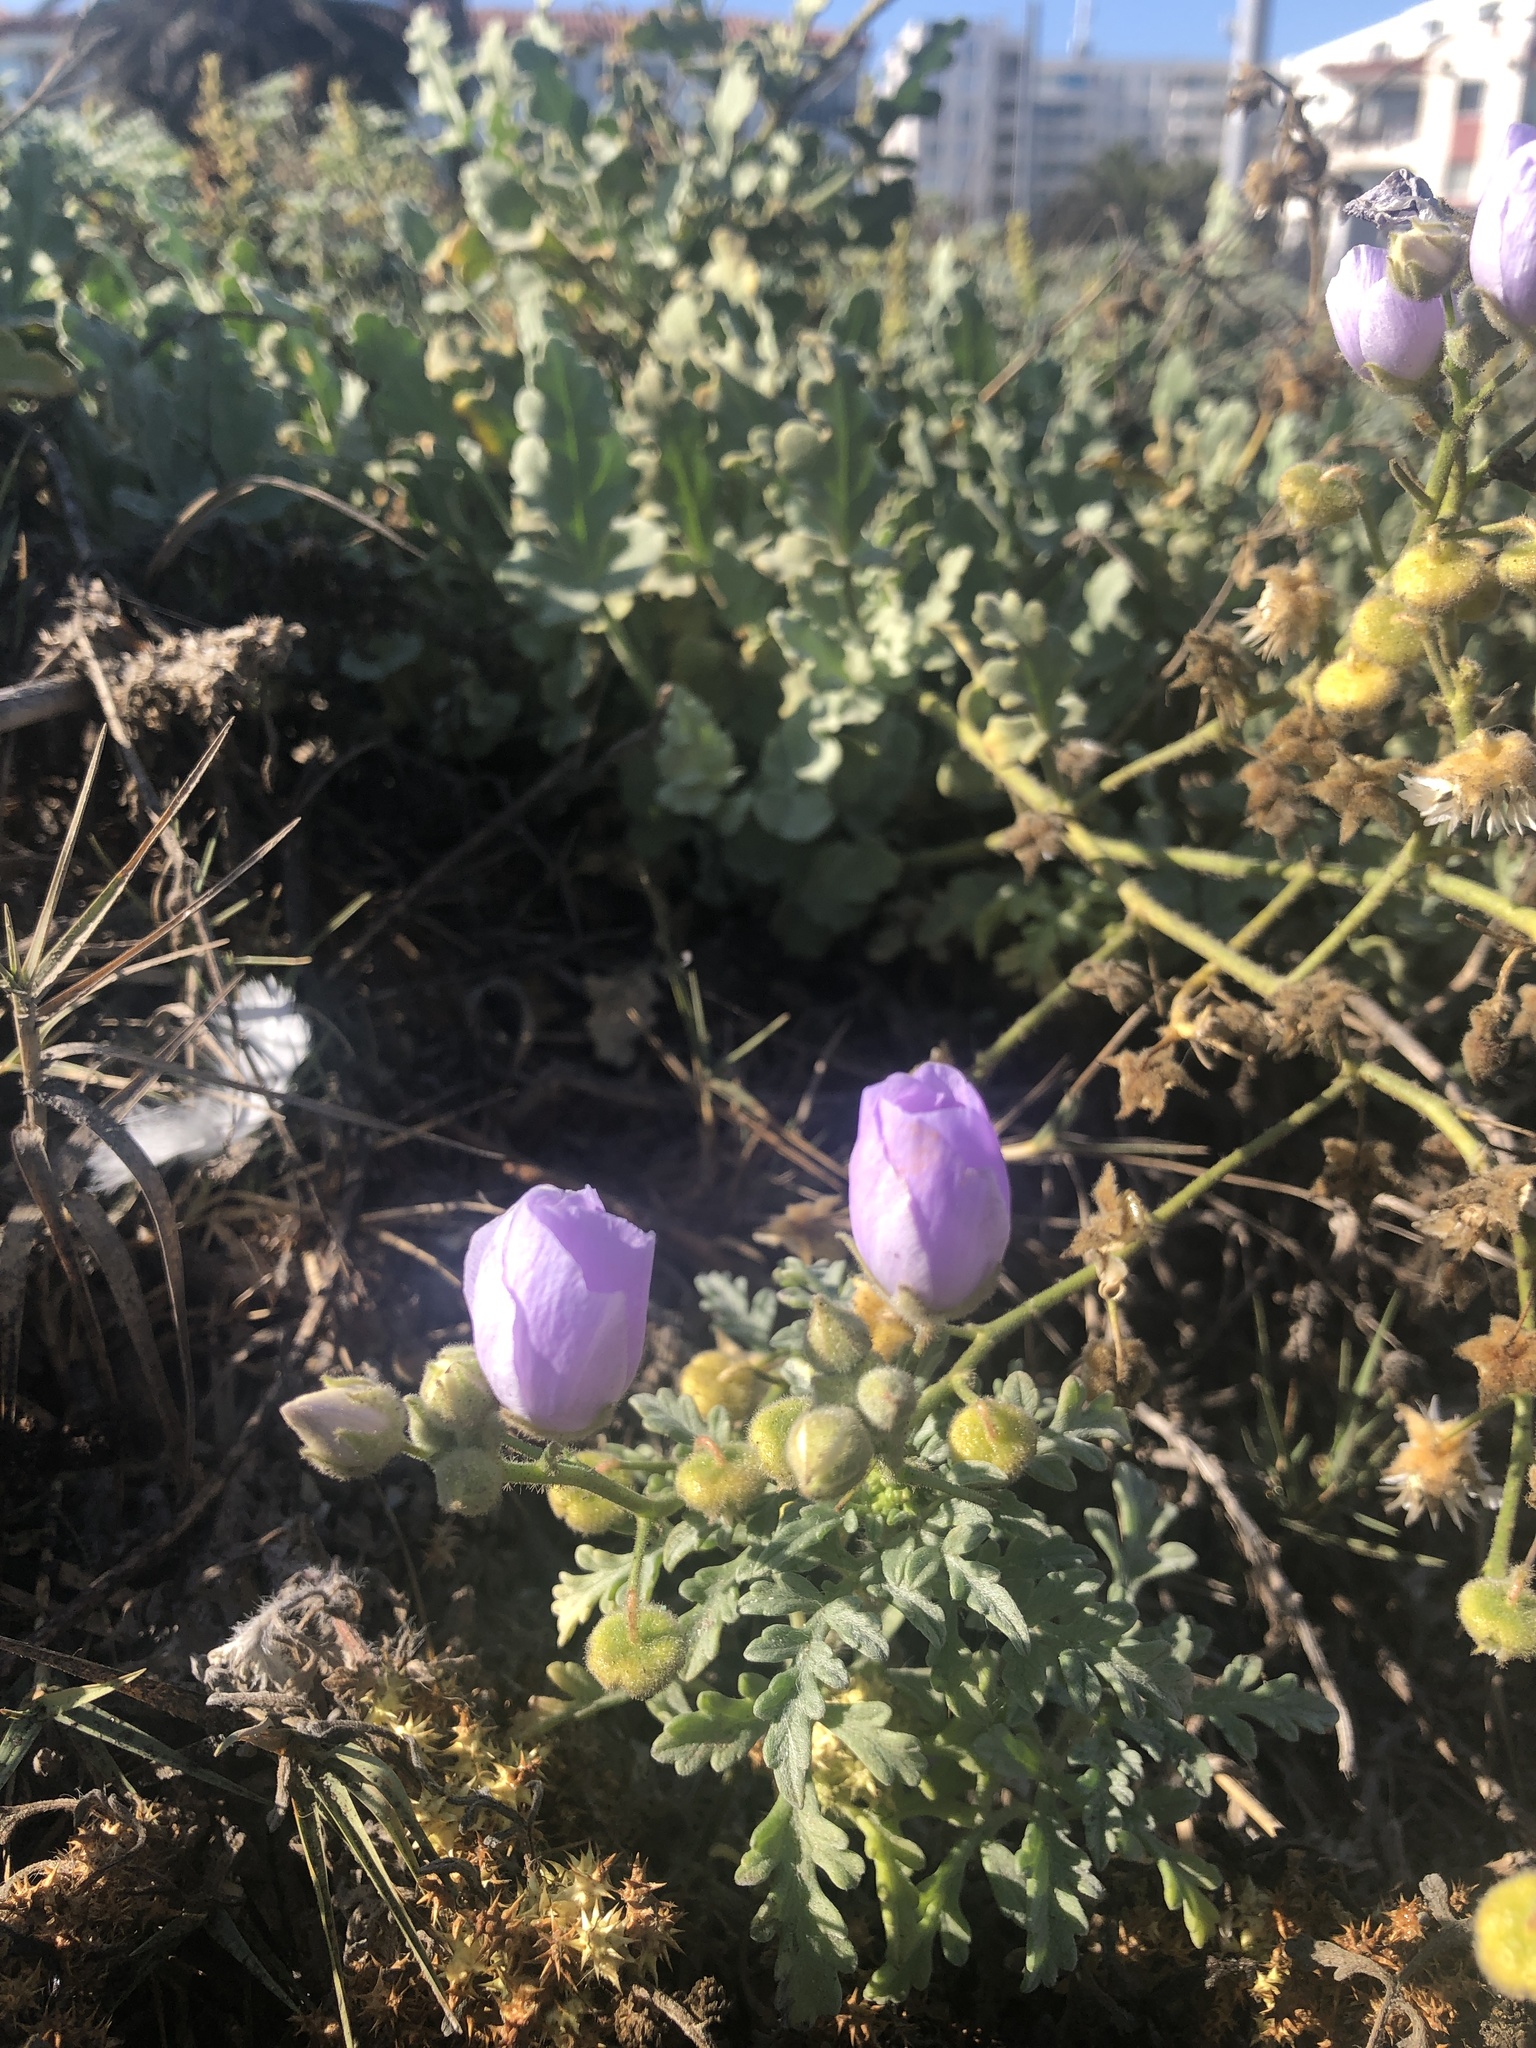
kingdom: Plantae
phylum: Tracheophyta
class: Magnoliopsida
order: Malvales
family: Malvaceae
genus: Cristaria
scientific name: Cristaria glaucophylla
